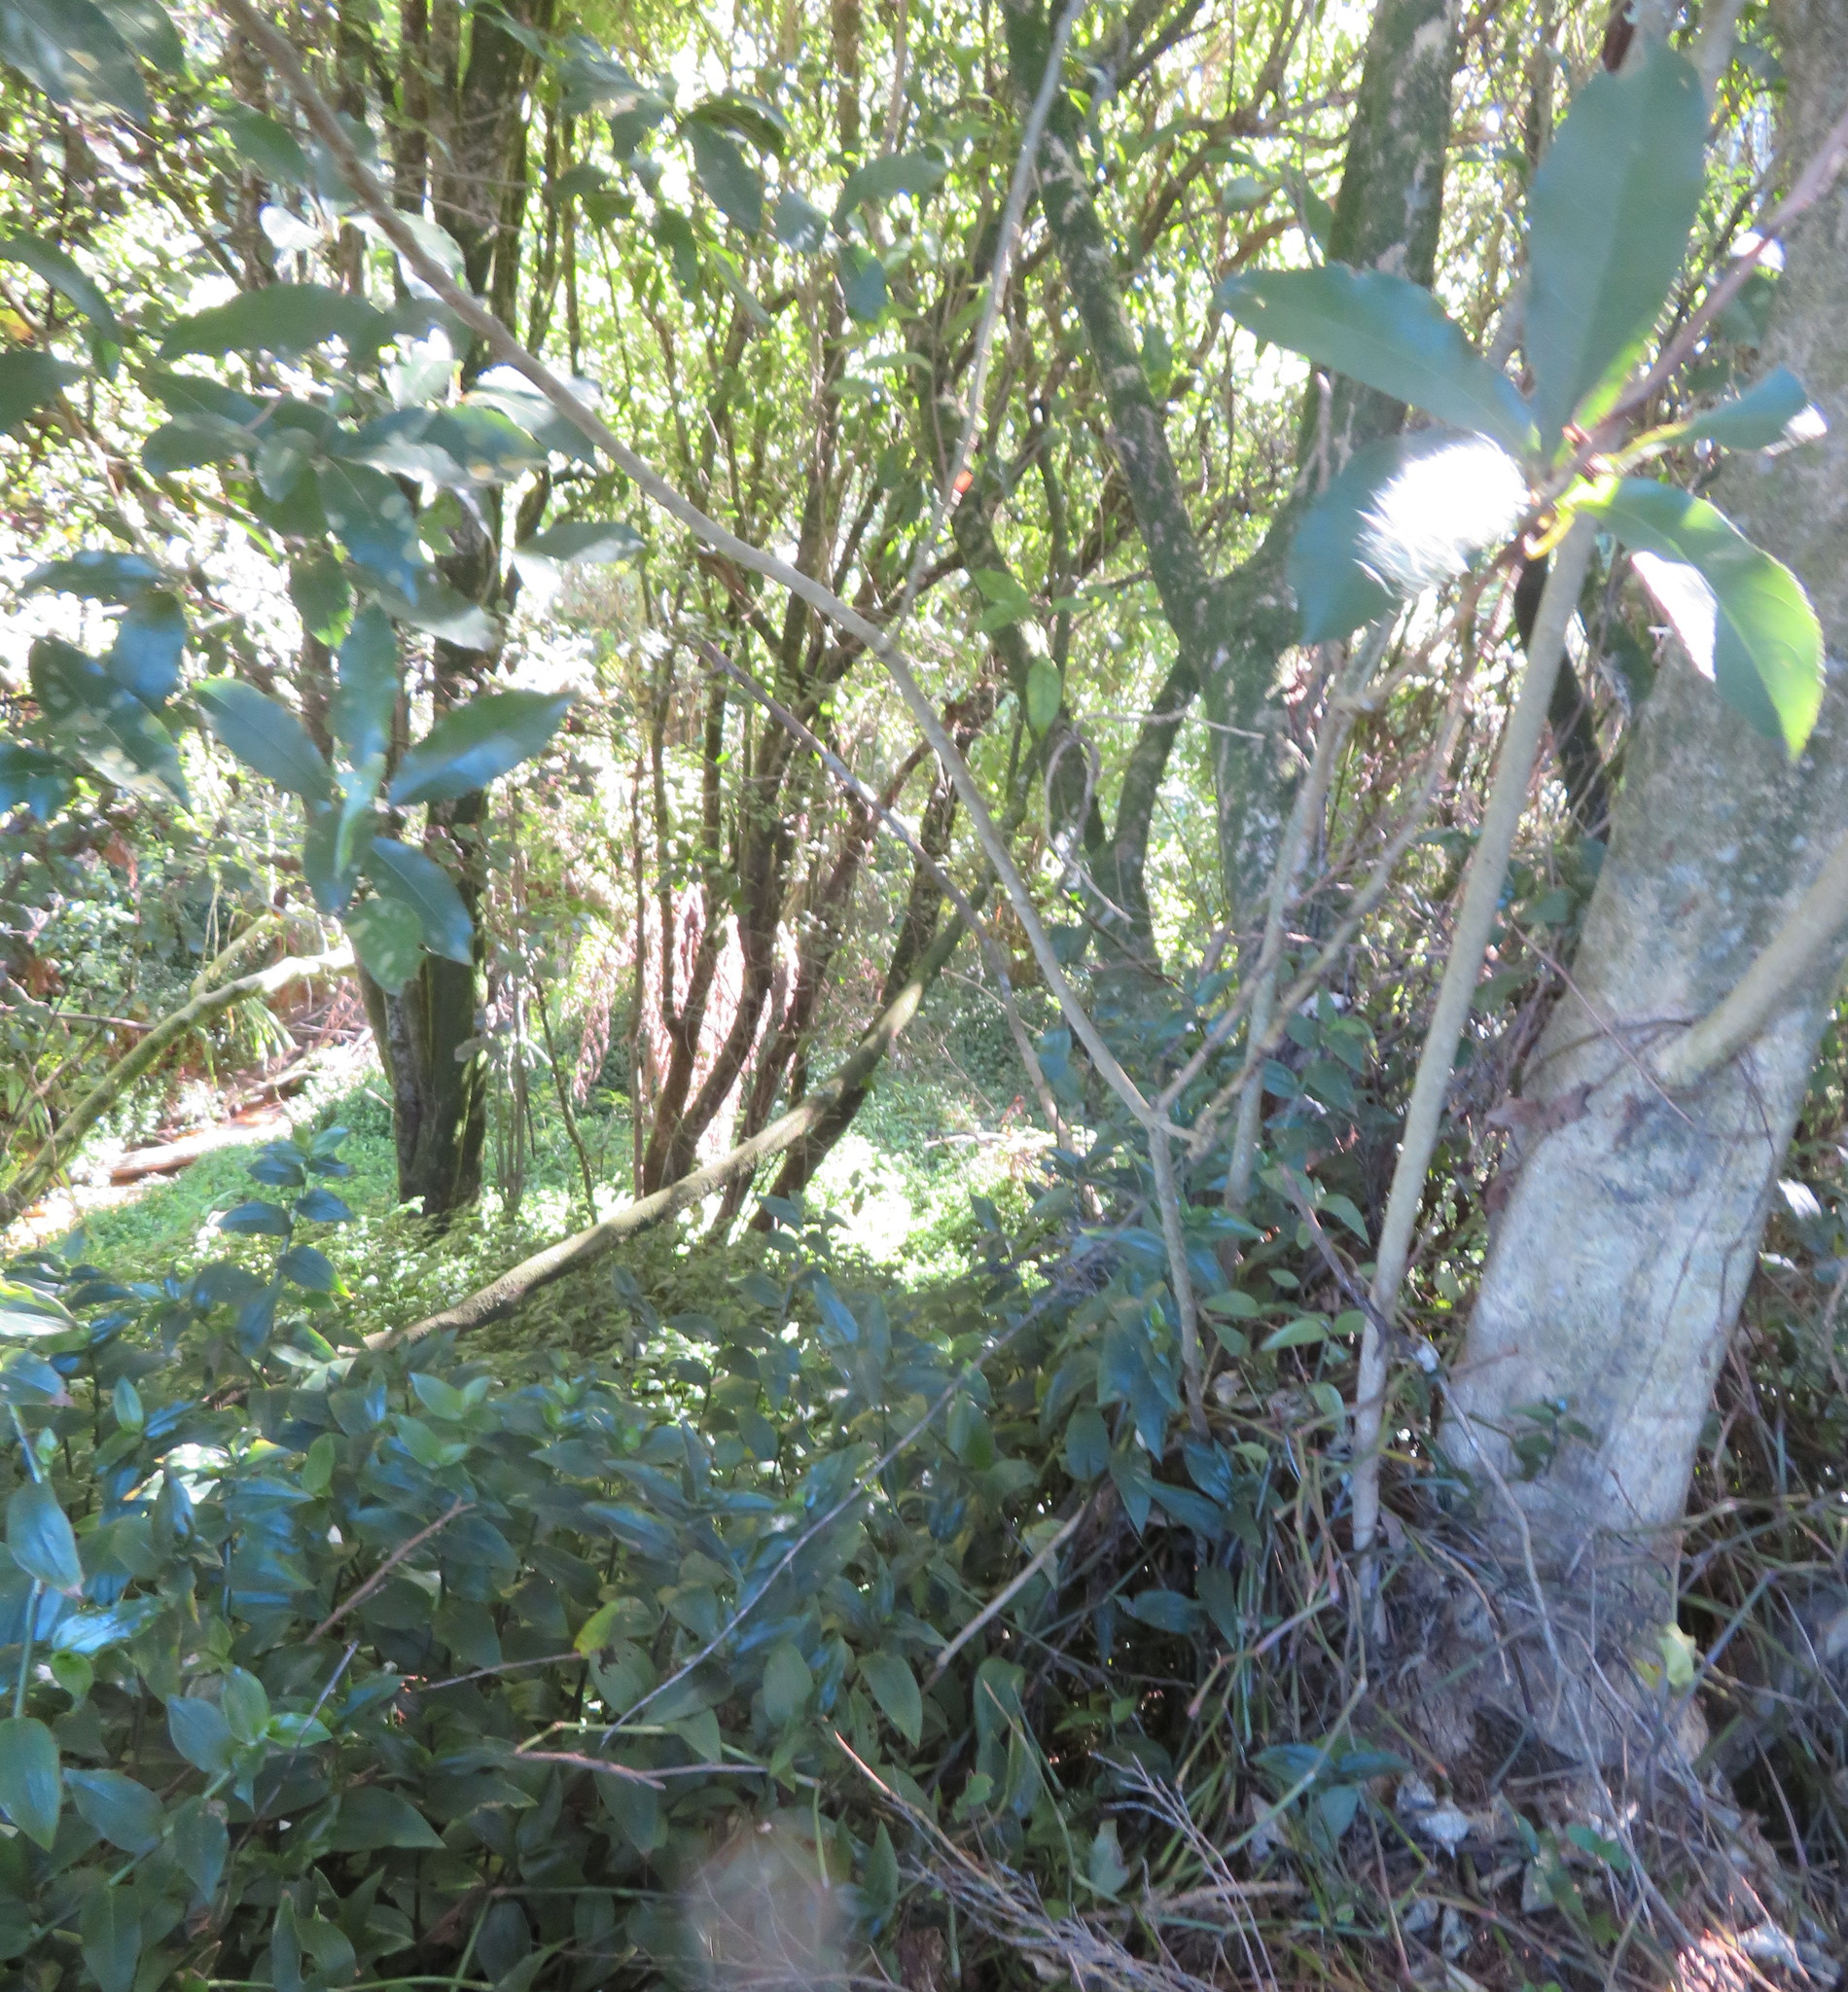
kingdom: Plantae
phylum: Tracheophyta
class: Liliopsida
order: Commelinales
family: Commelinaceae
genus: Tradescantia
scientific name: Tradescantia fluminensis
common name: Wandering-jew
